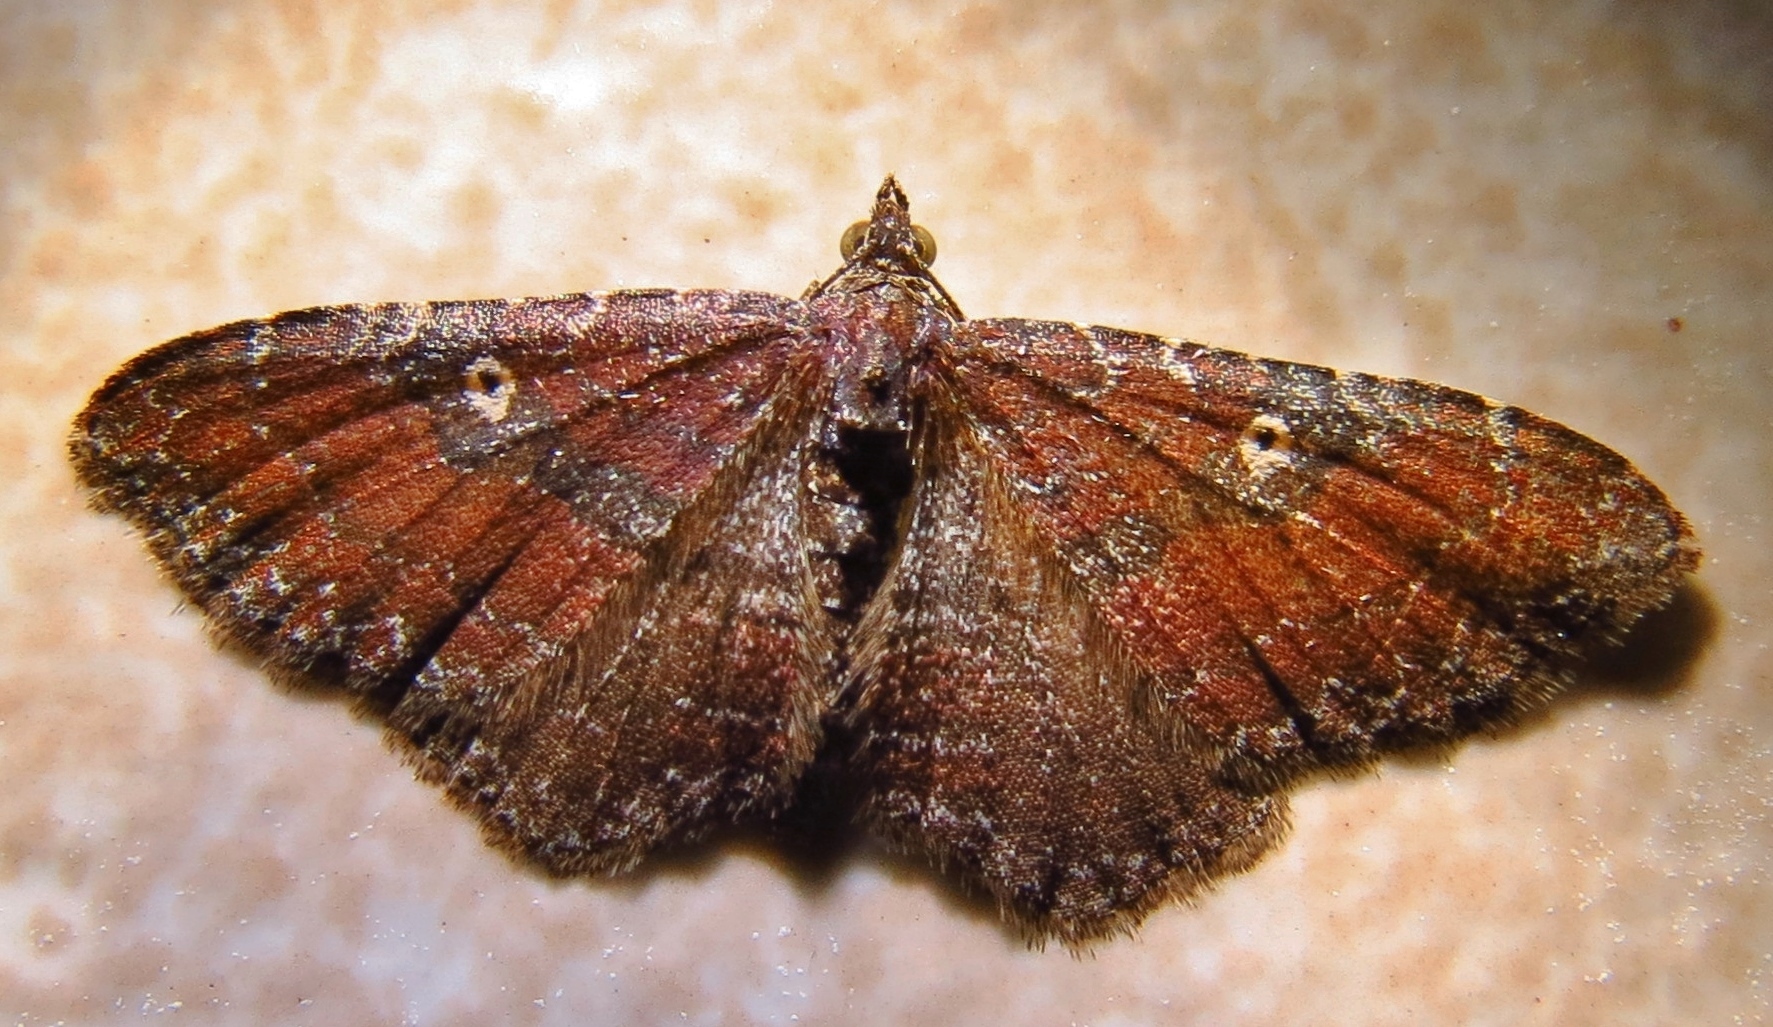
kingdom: Animalia
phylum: Arthropoda
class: Insecta
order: Lepidoptera
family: Geometridae
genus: Orthonama
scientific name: Orthonama obstipata
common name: The gem
